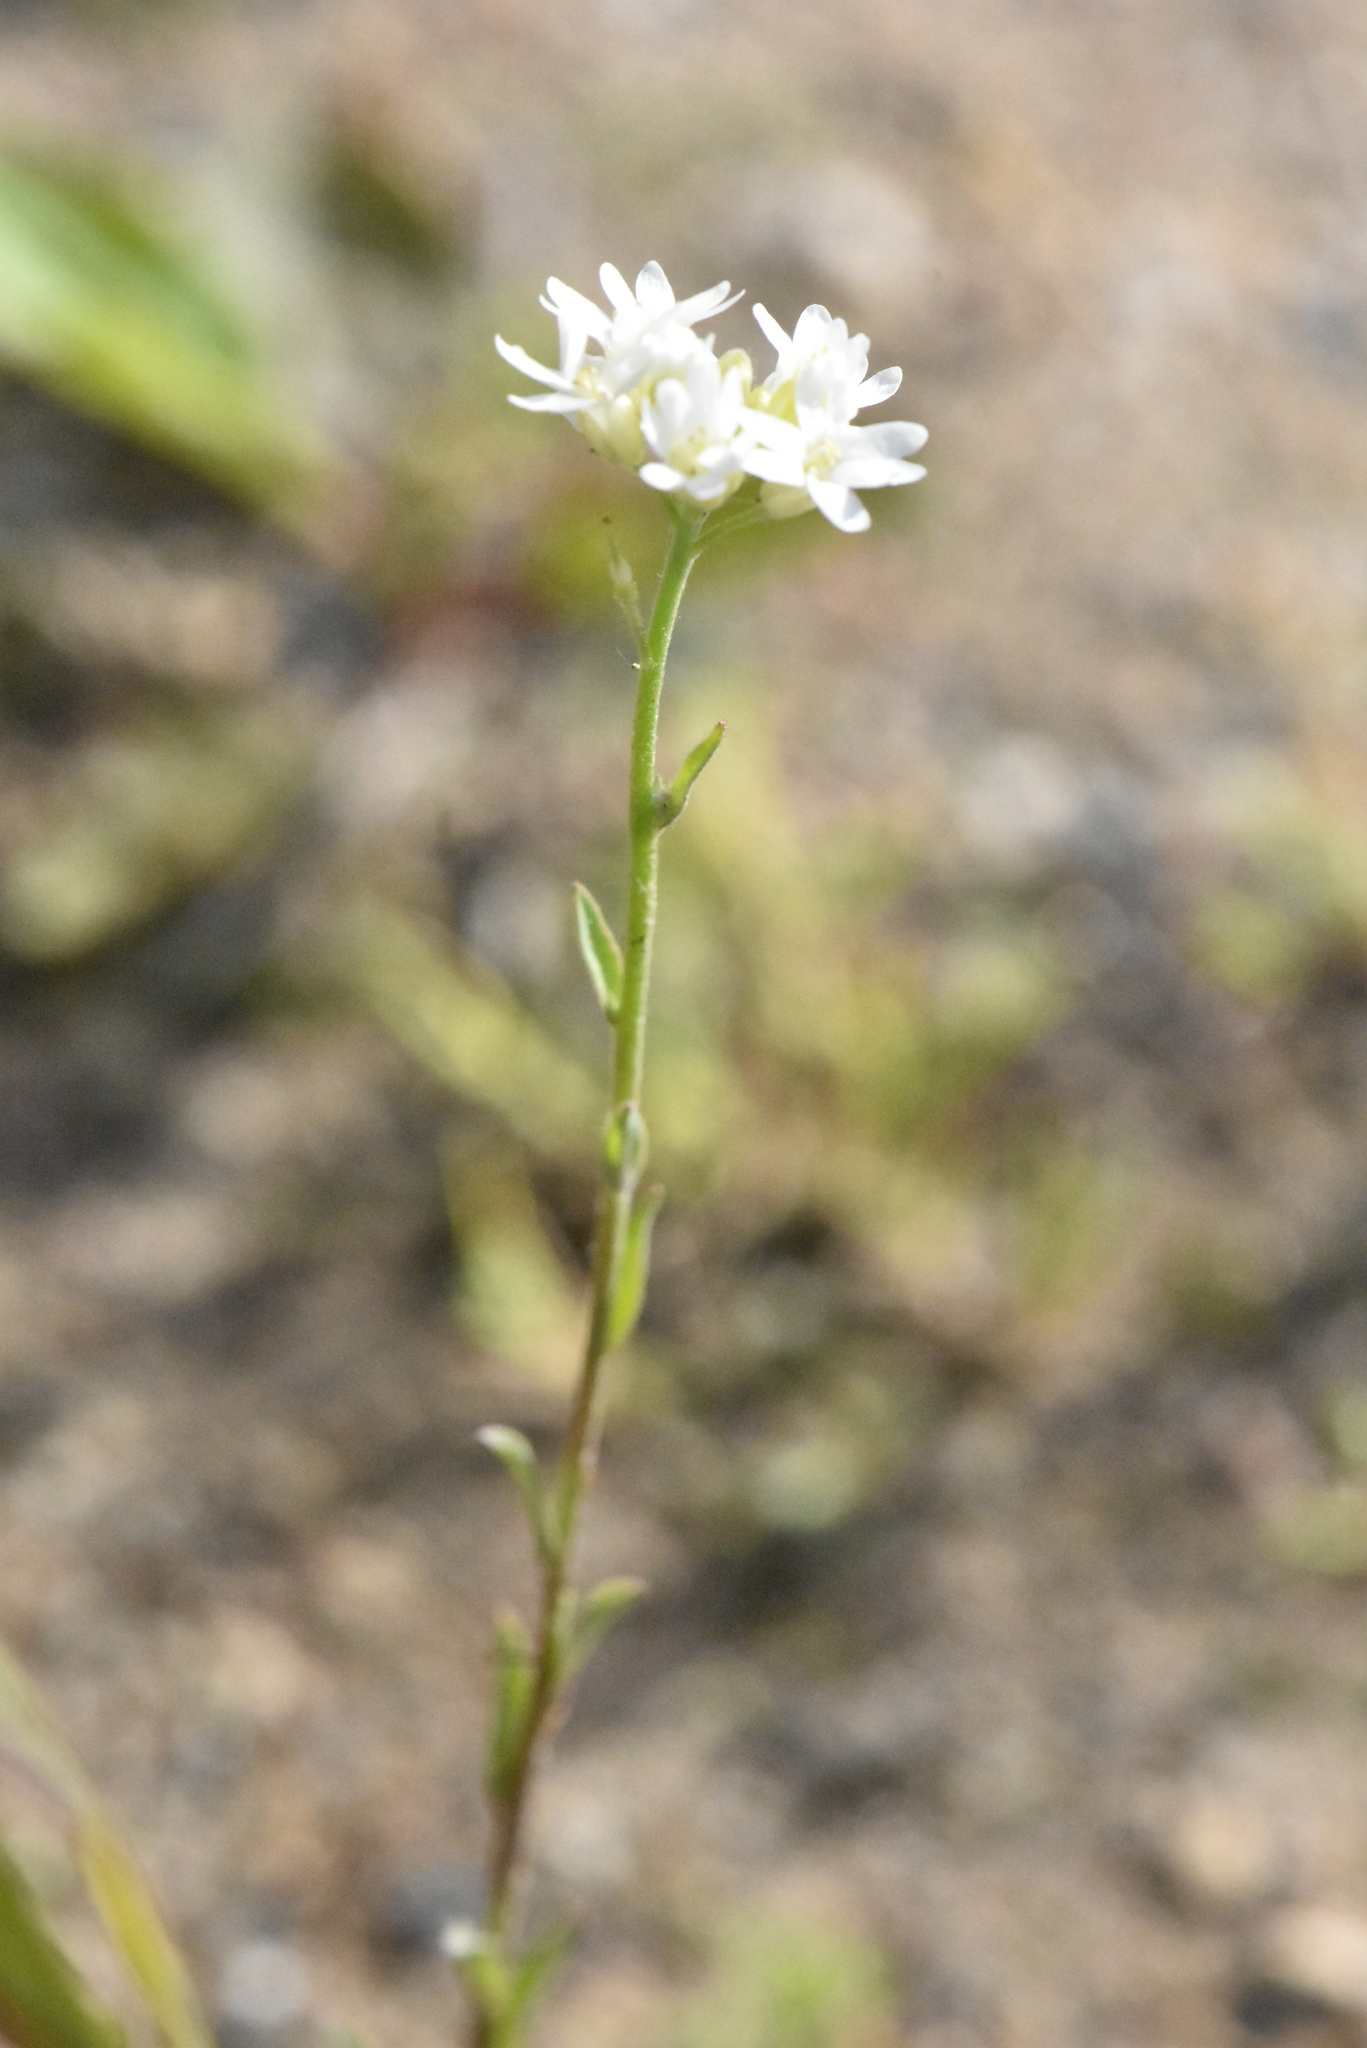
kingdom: Plantae
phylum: Tracheophyta
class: Magnoliopsida
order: Brassicales
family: Brassicaceae
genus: Berteroa
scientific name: Berteroa incana
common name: Hoary alison
